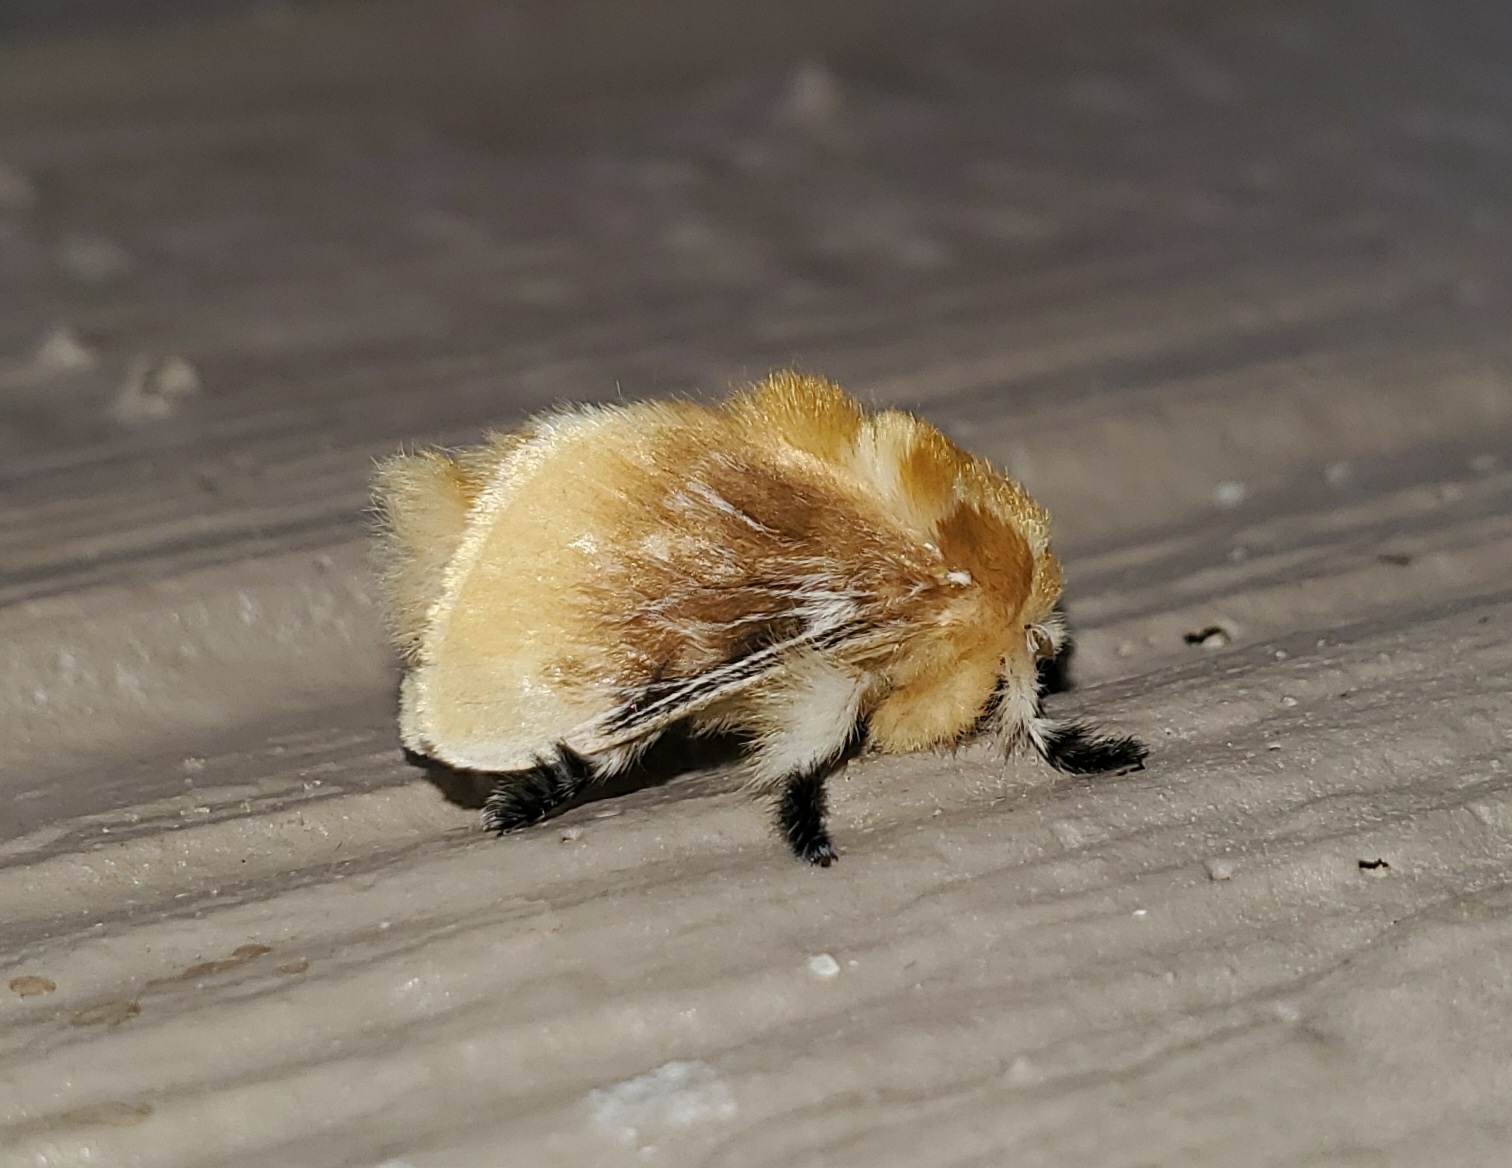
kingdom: Animalia
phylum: Arthropoda
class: Insecta
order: Lepidoptera
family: Megalopygidae
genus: Megalopyge
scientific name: Megalopyge opercularis
